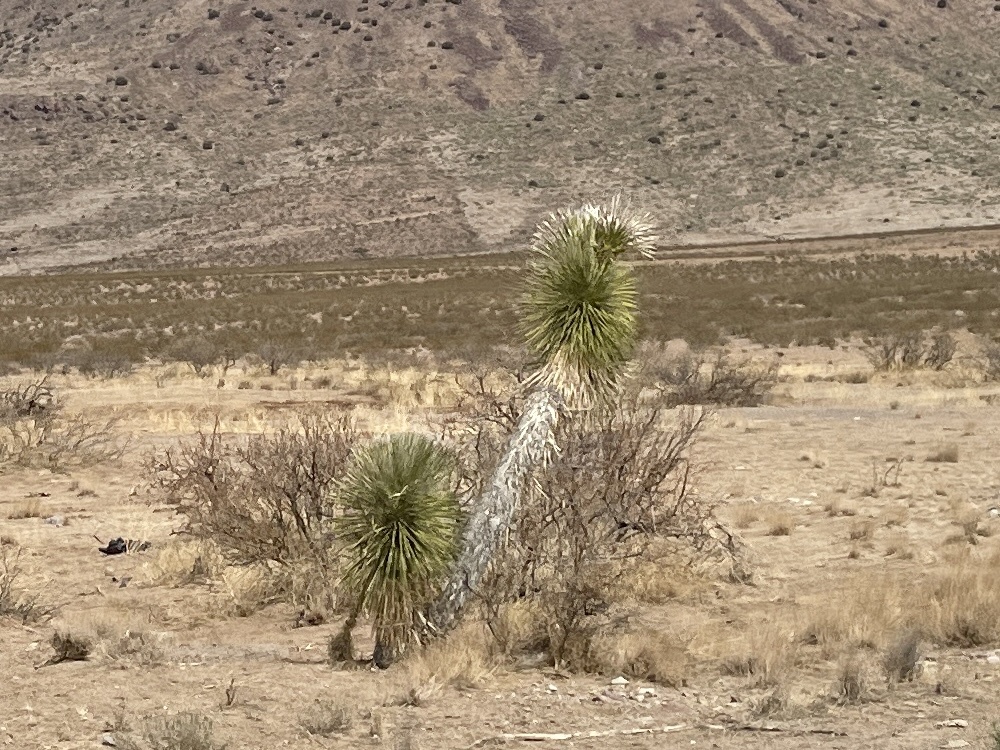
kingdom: Plantae
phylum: Tracheophyta
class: Liliopsida
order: Asparagales
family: Asparagaceae
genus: Yucca
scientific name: Yucca elata
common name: Palmella
